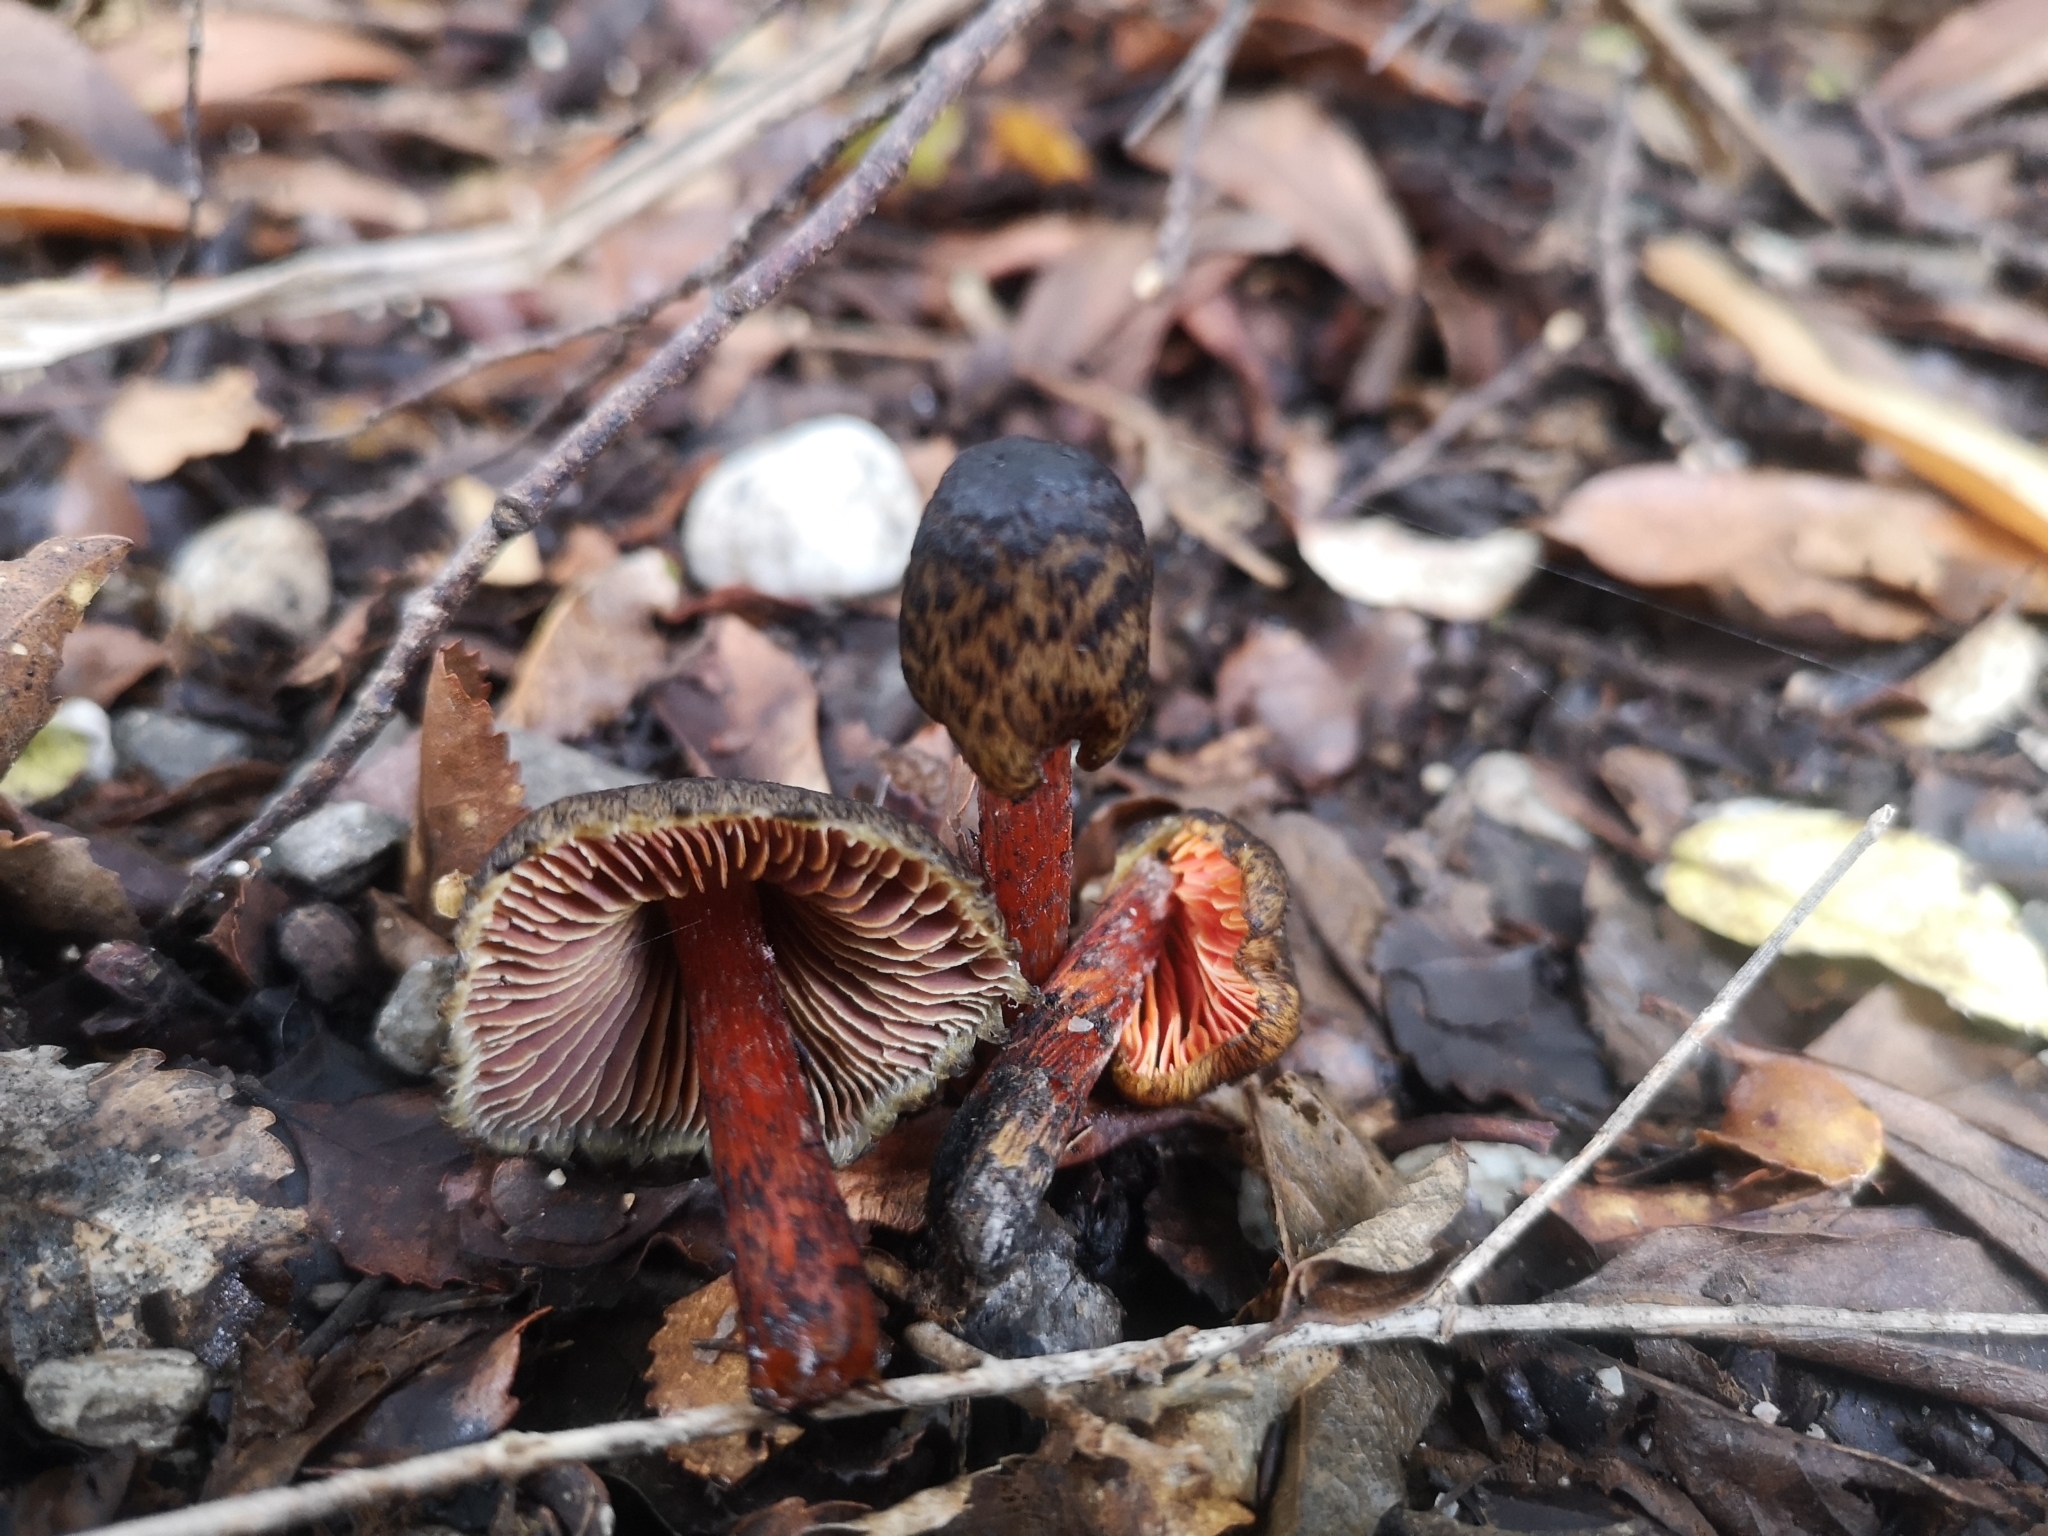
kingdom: Fungi
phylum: Basidiomycota
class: Agaricomycetes
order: Agaricales
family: Hygrophoraceae
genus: Hygrocybe
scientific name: Hygrocybe astatogala
